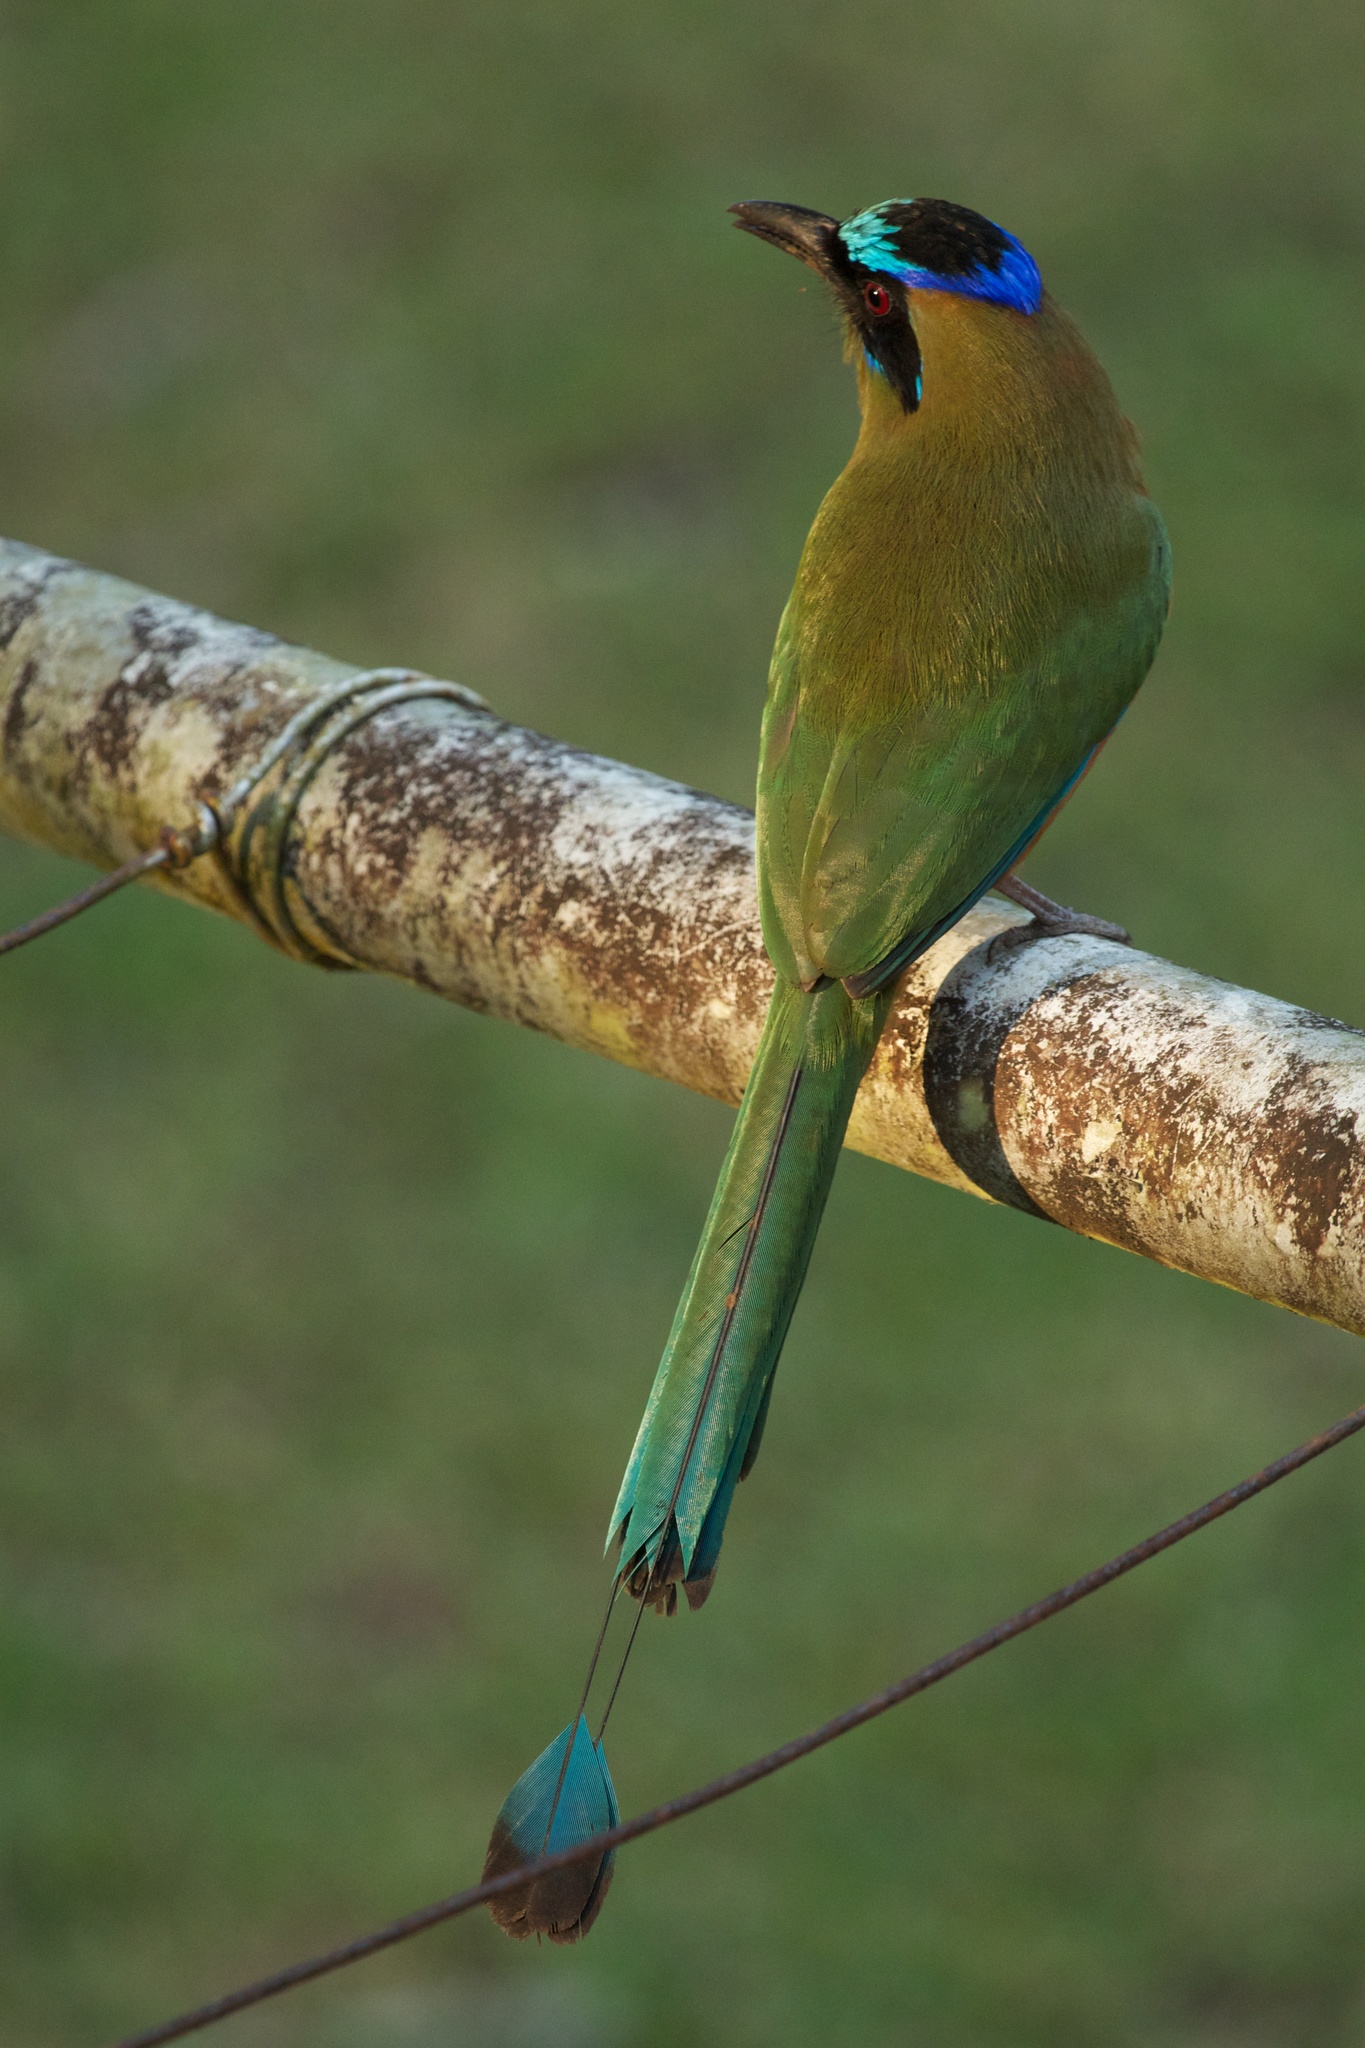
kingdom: Animalia
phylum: Chordata
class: Aves
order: Coraciiformes
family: Momotidae
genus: Momotus
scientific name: Momotus subrufescens
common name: Whooping motmot
